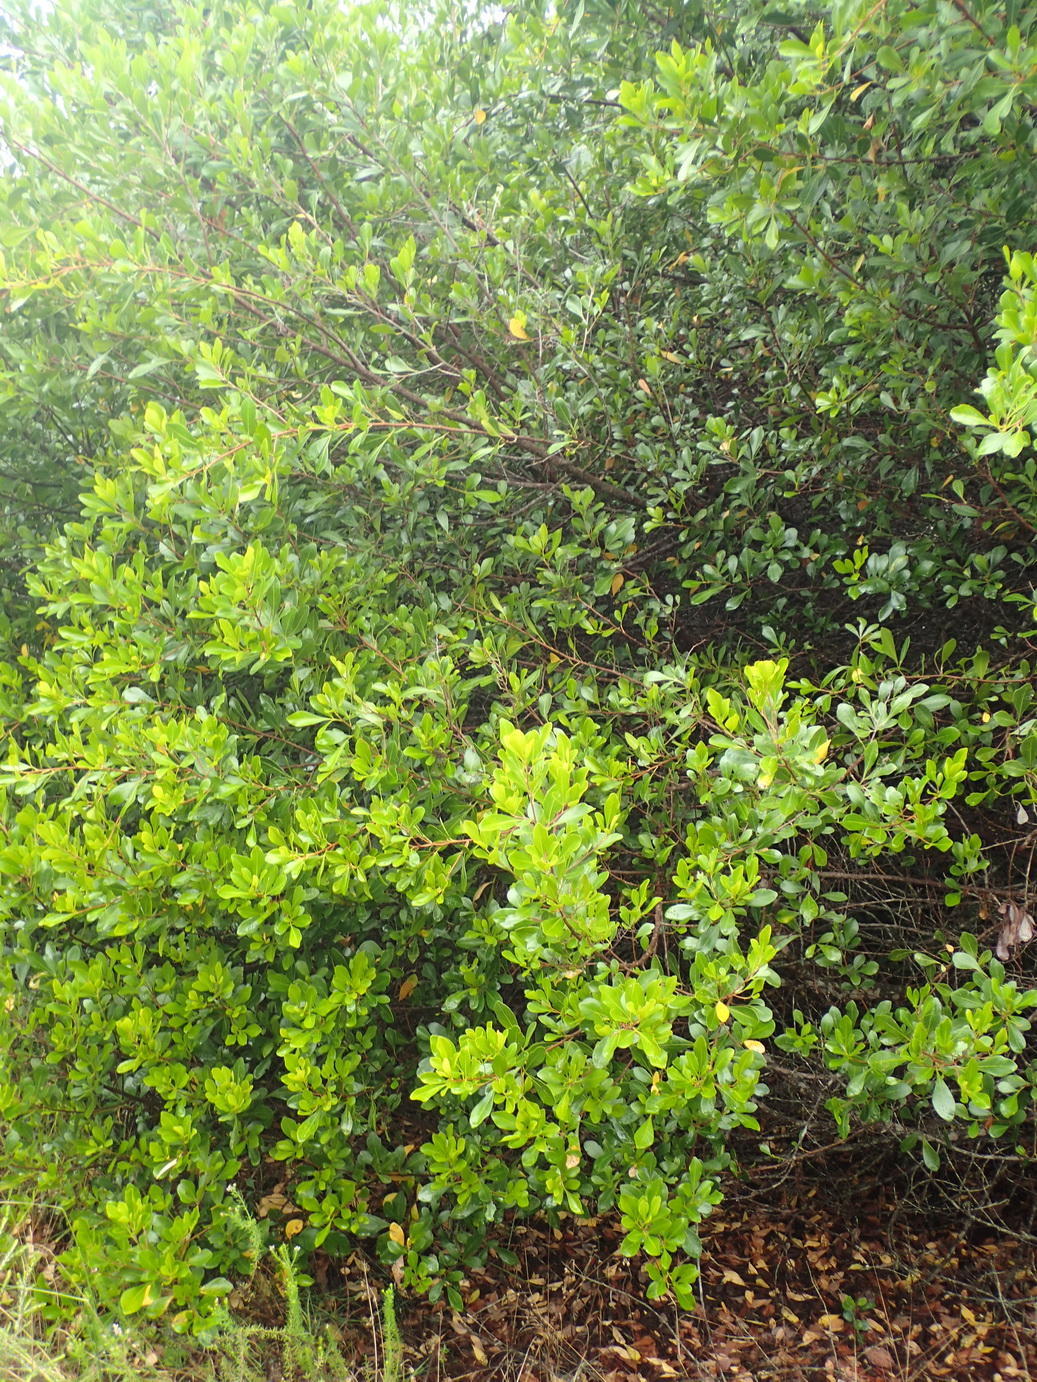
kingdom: Plantae
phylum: Tracheophyta
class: Magnoliopsida
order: Sapindales
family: Anacardiaceae
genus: Searsia
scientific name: Searsia lucida
